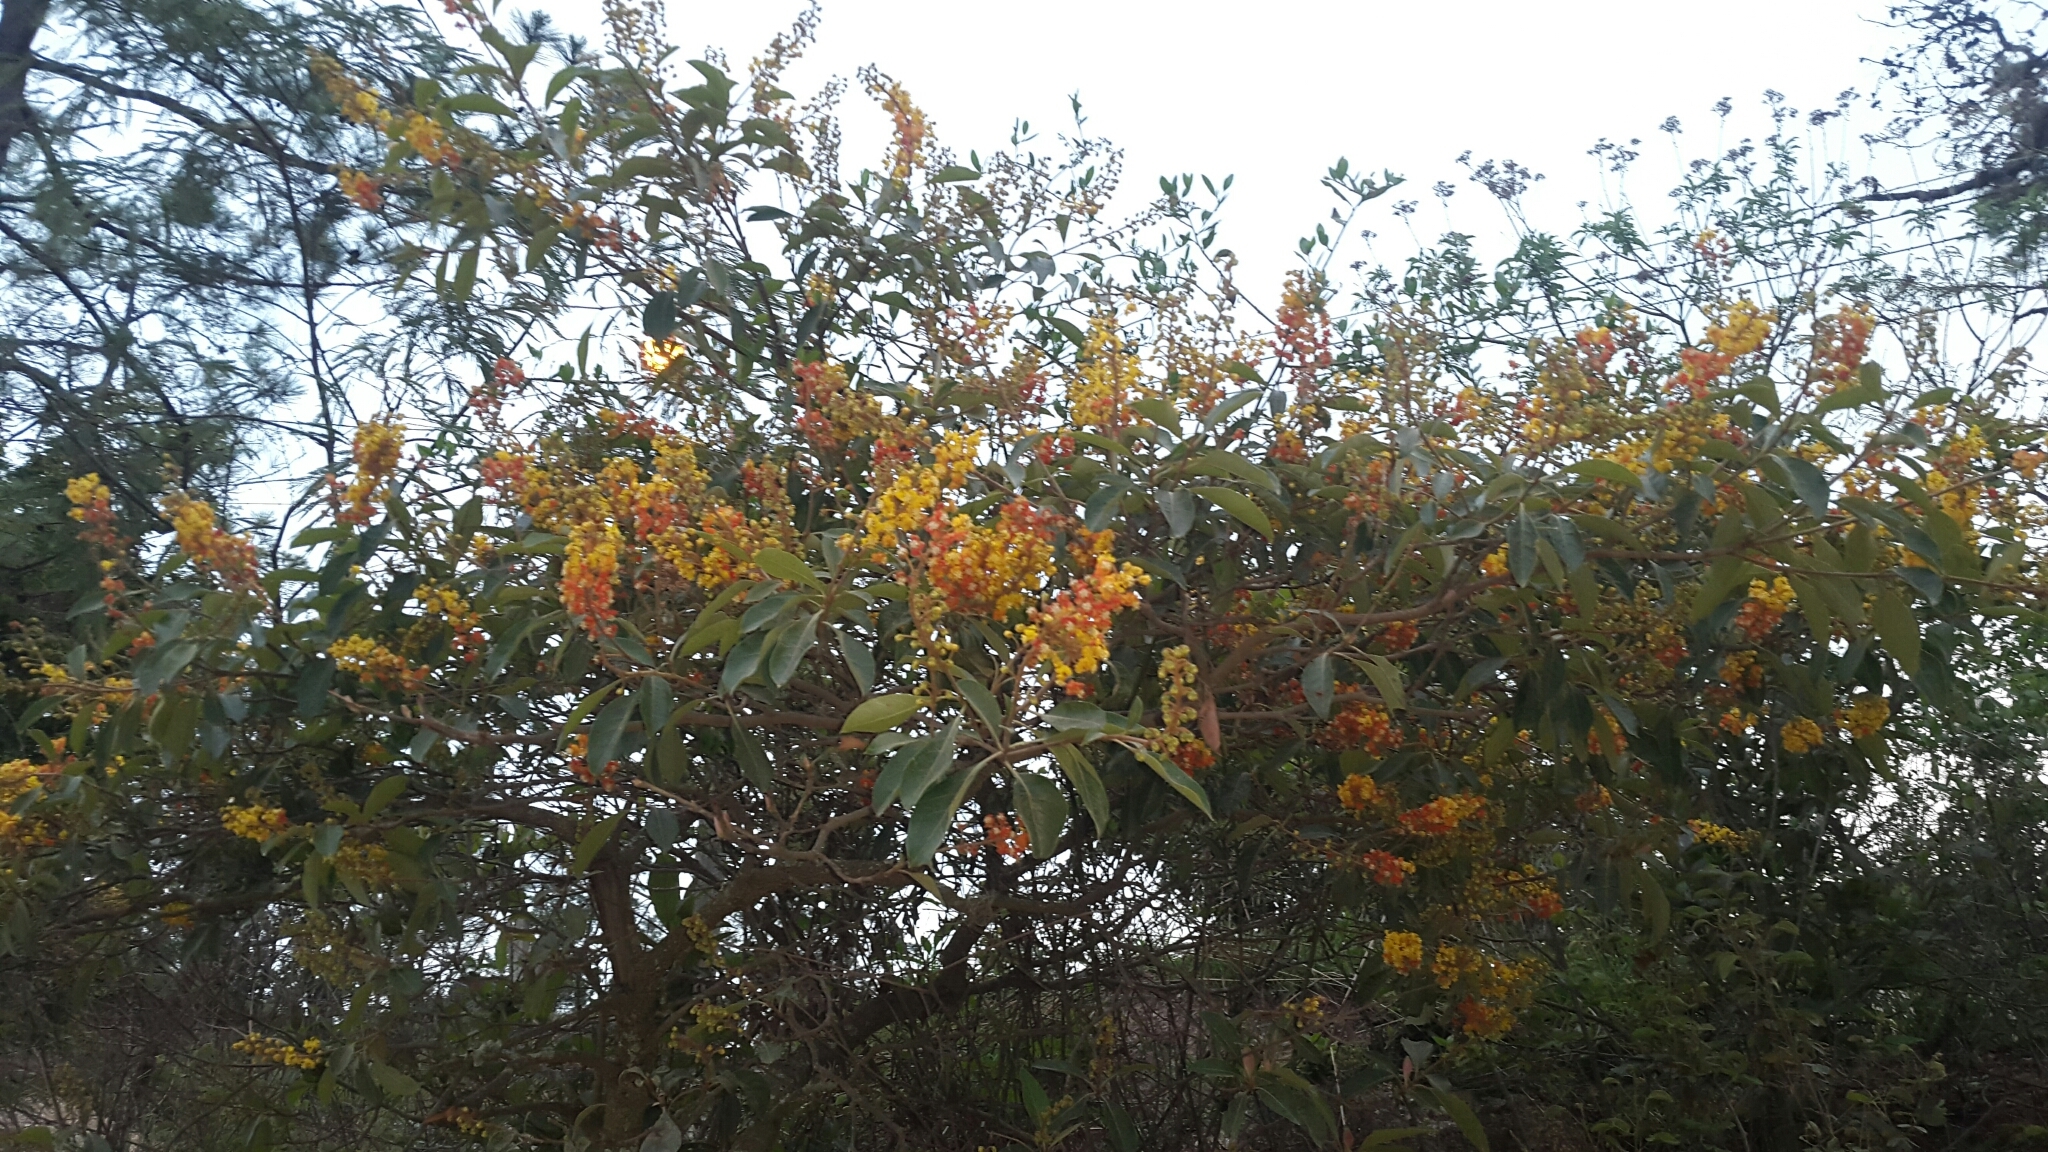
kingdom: Plantae
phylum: Tracheophyta
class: Magnoliopsida
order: Malpighiales
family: Malpighiaceae
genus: Byrsonima
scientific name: Byrsonima crassifolia
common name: Golden spoon
